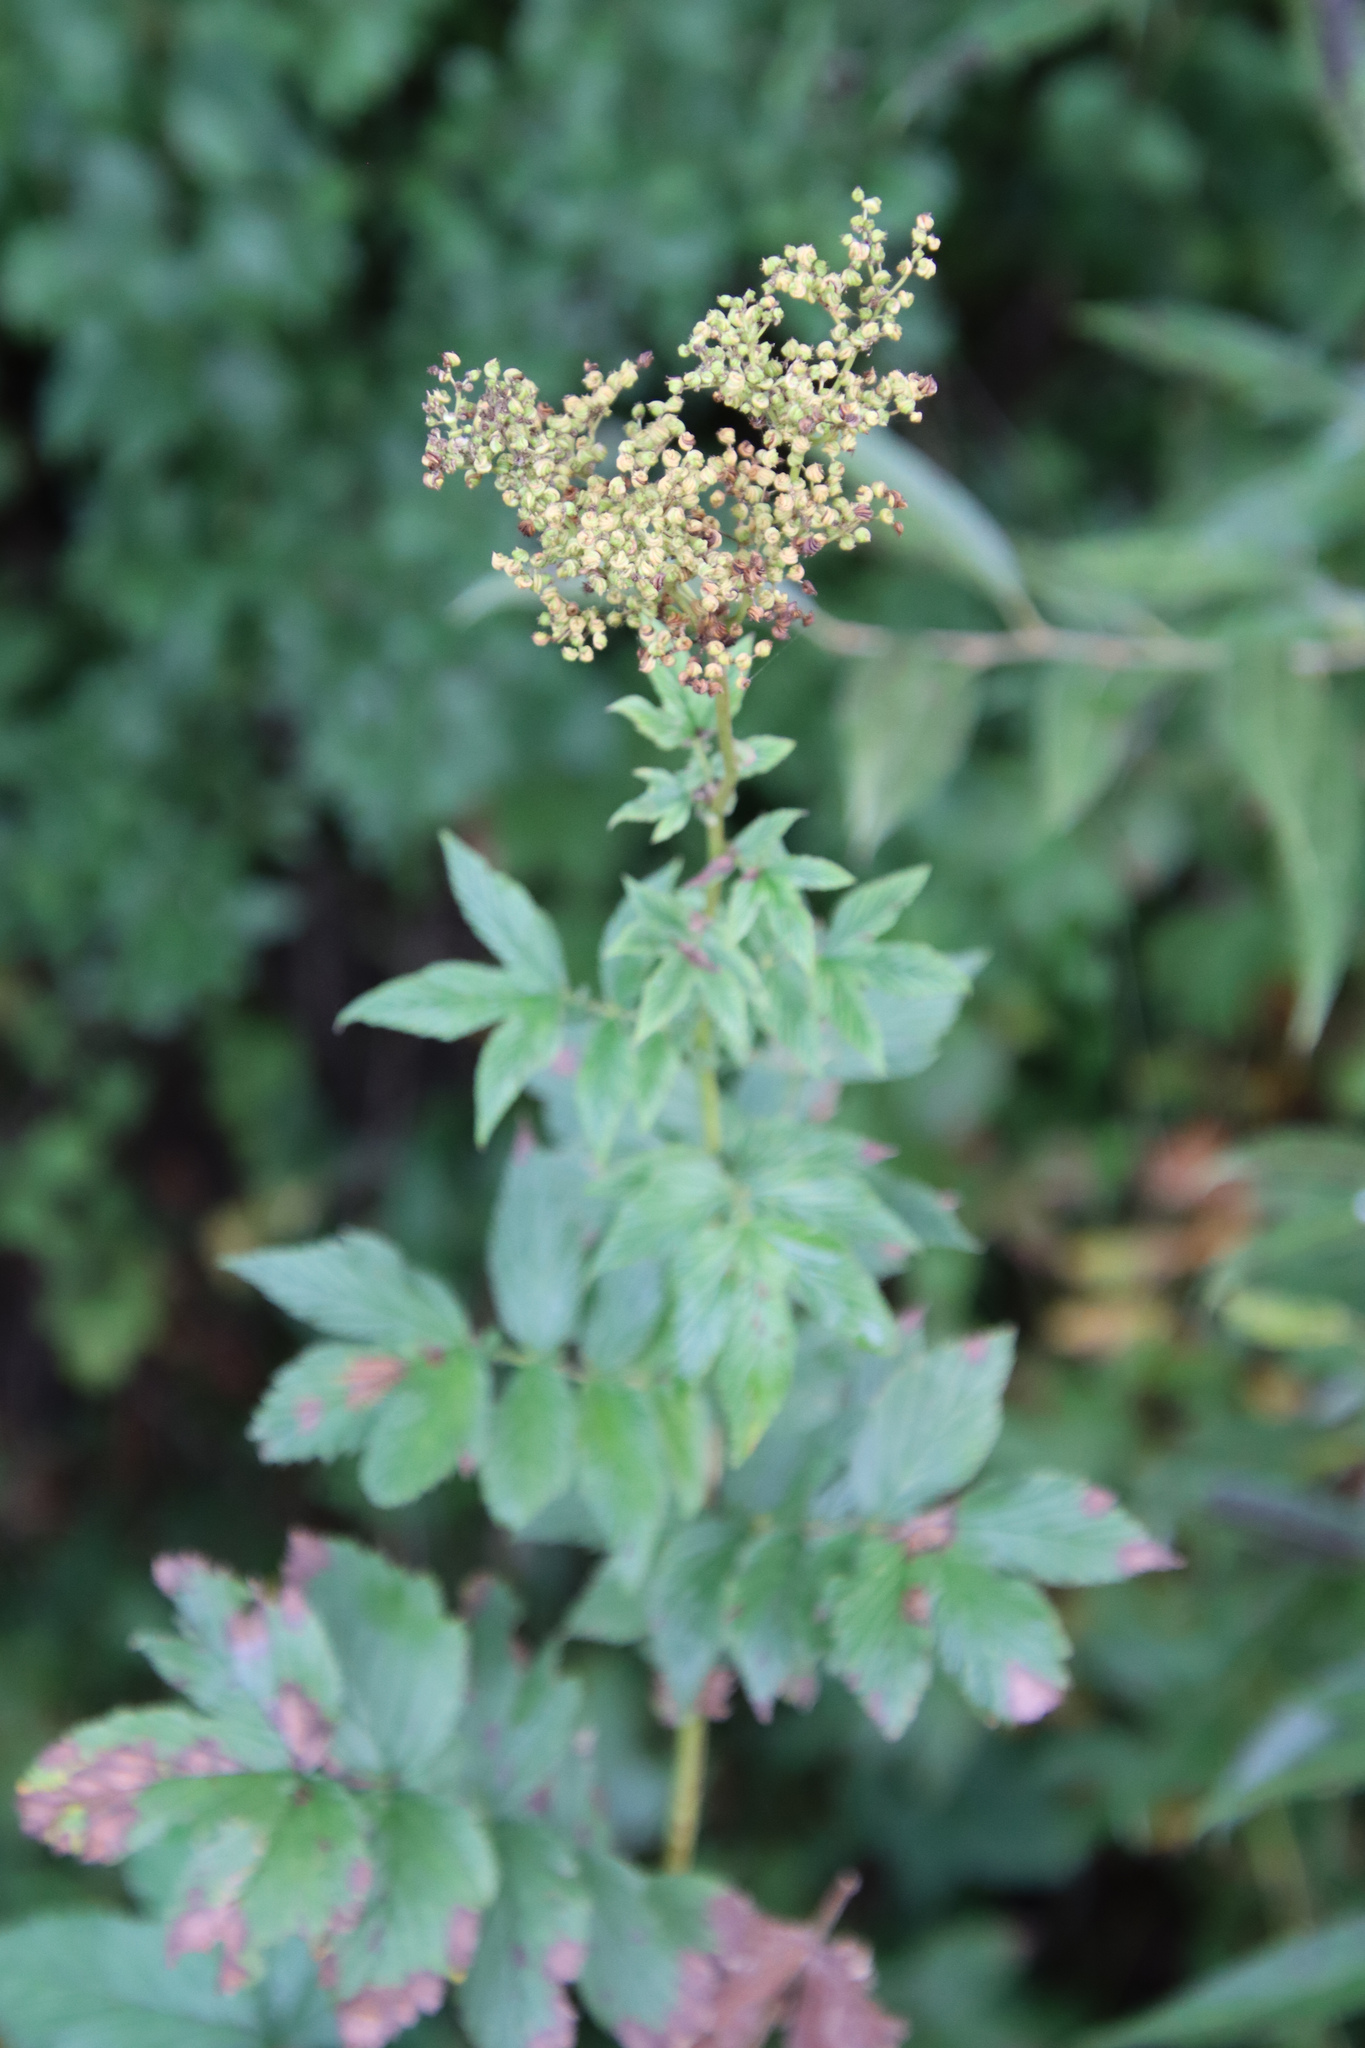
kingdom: Plantae
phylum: Tracheophyta
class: Magnoliopsida
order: Rosales
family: Rosaceae
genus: Filipendula
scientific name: Filipendula ulmaria
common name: Meadowsweet
